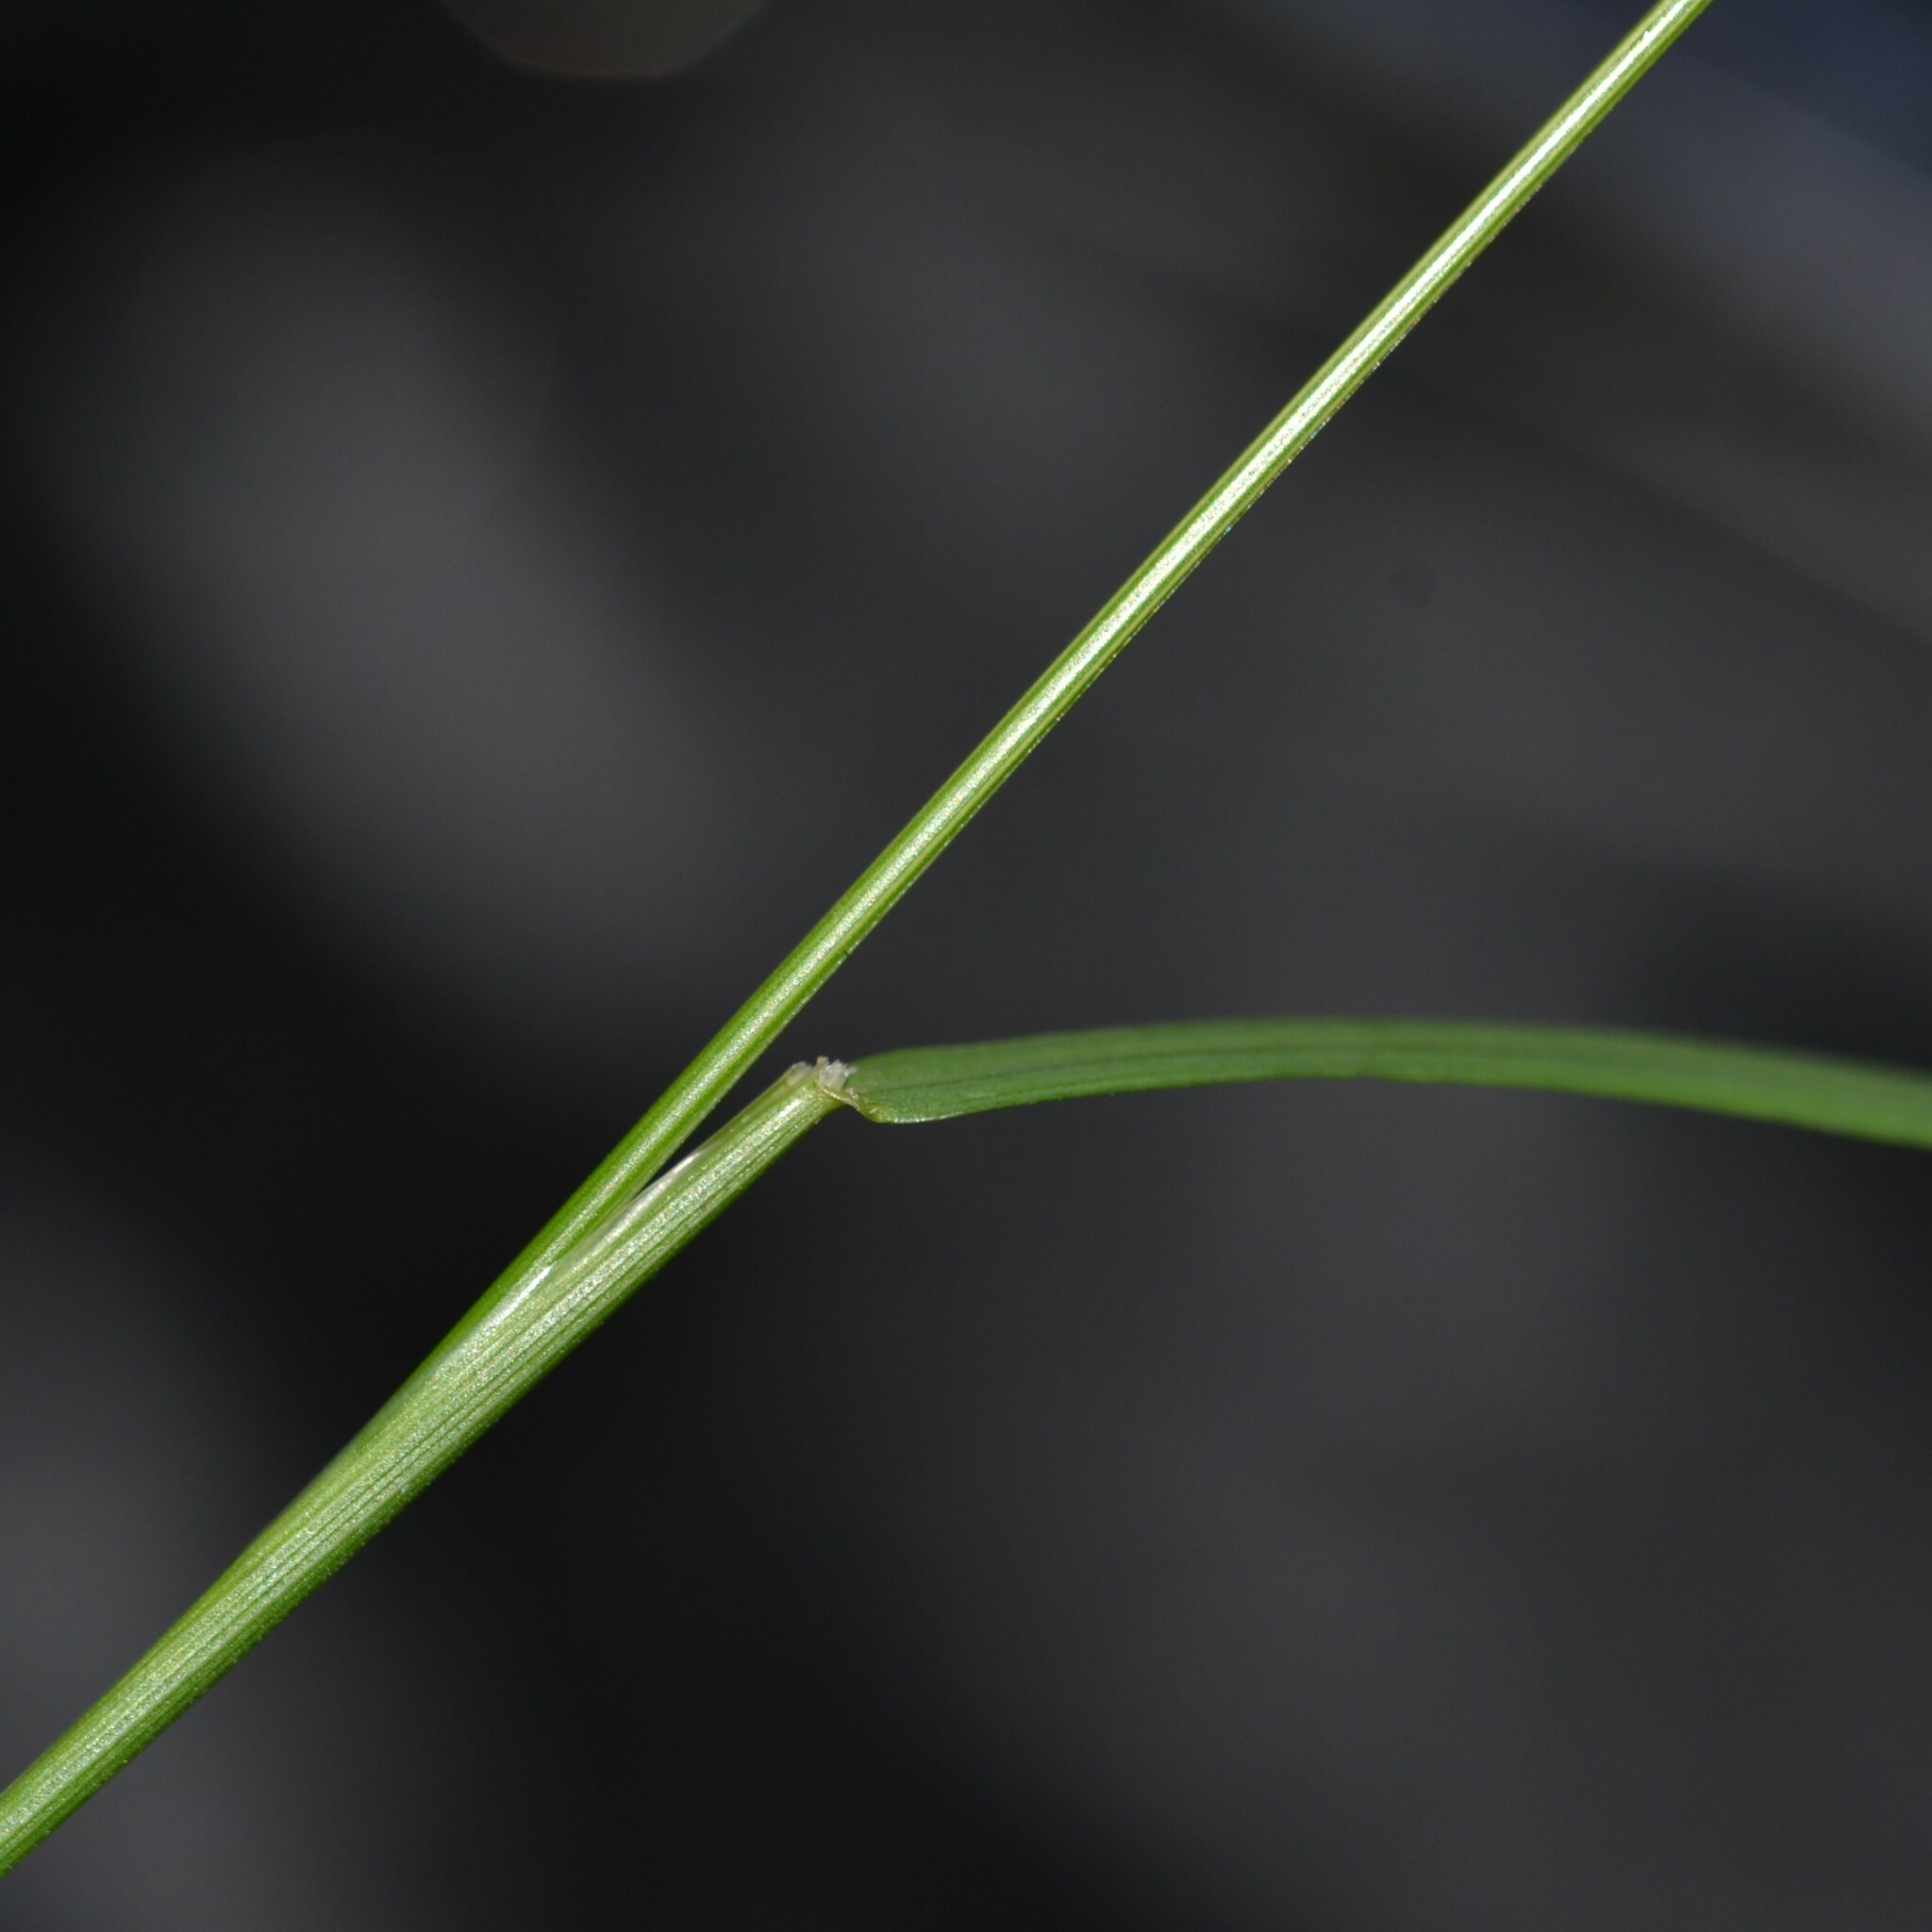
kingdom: Plantae
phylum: Tracheophyta
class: Liliopsida
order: Poales
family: Poaceae
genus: Microlaena
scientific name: Microlaena stipoides
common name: Meadow ricegrass
